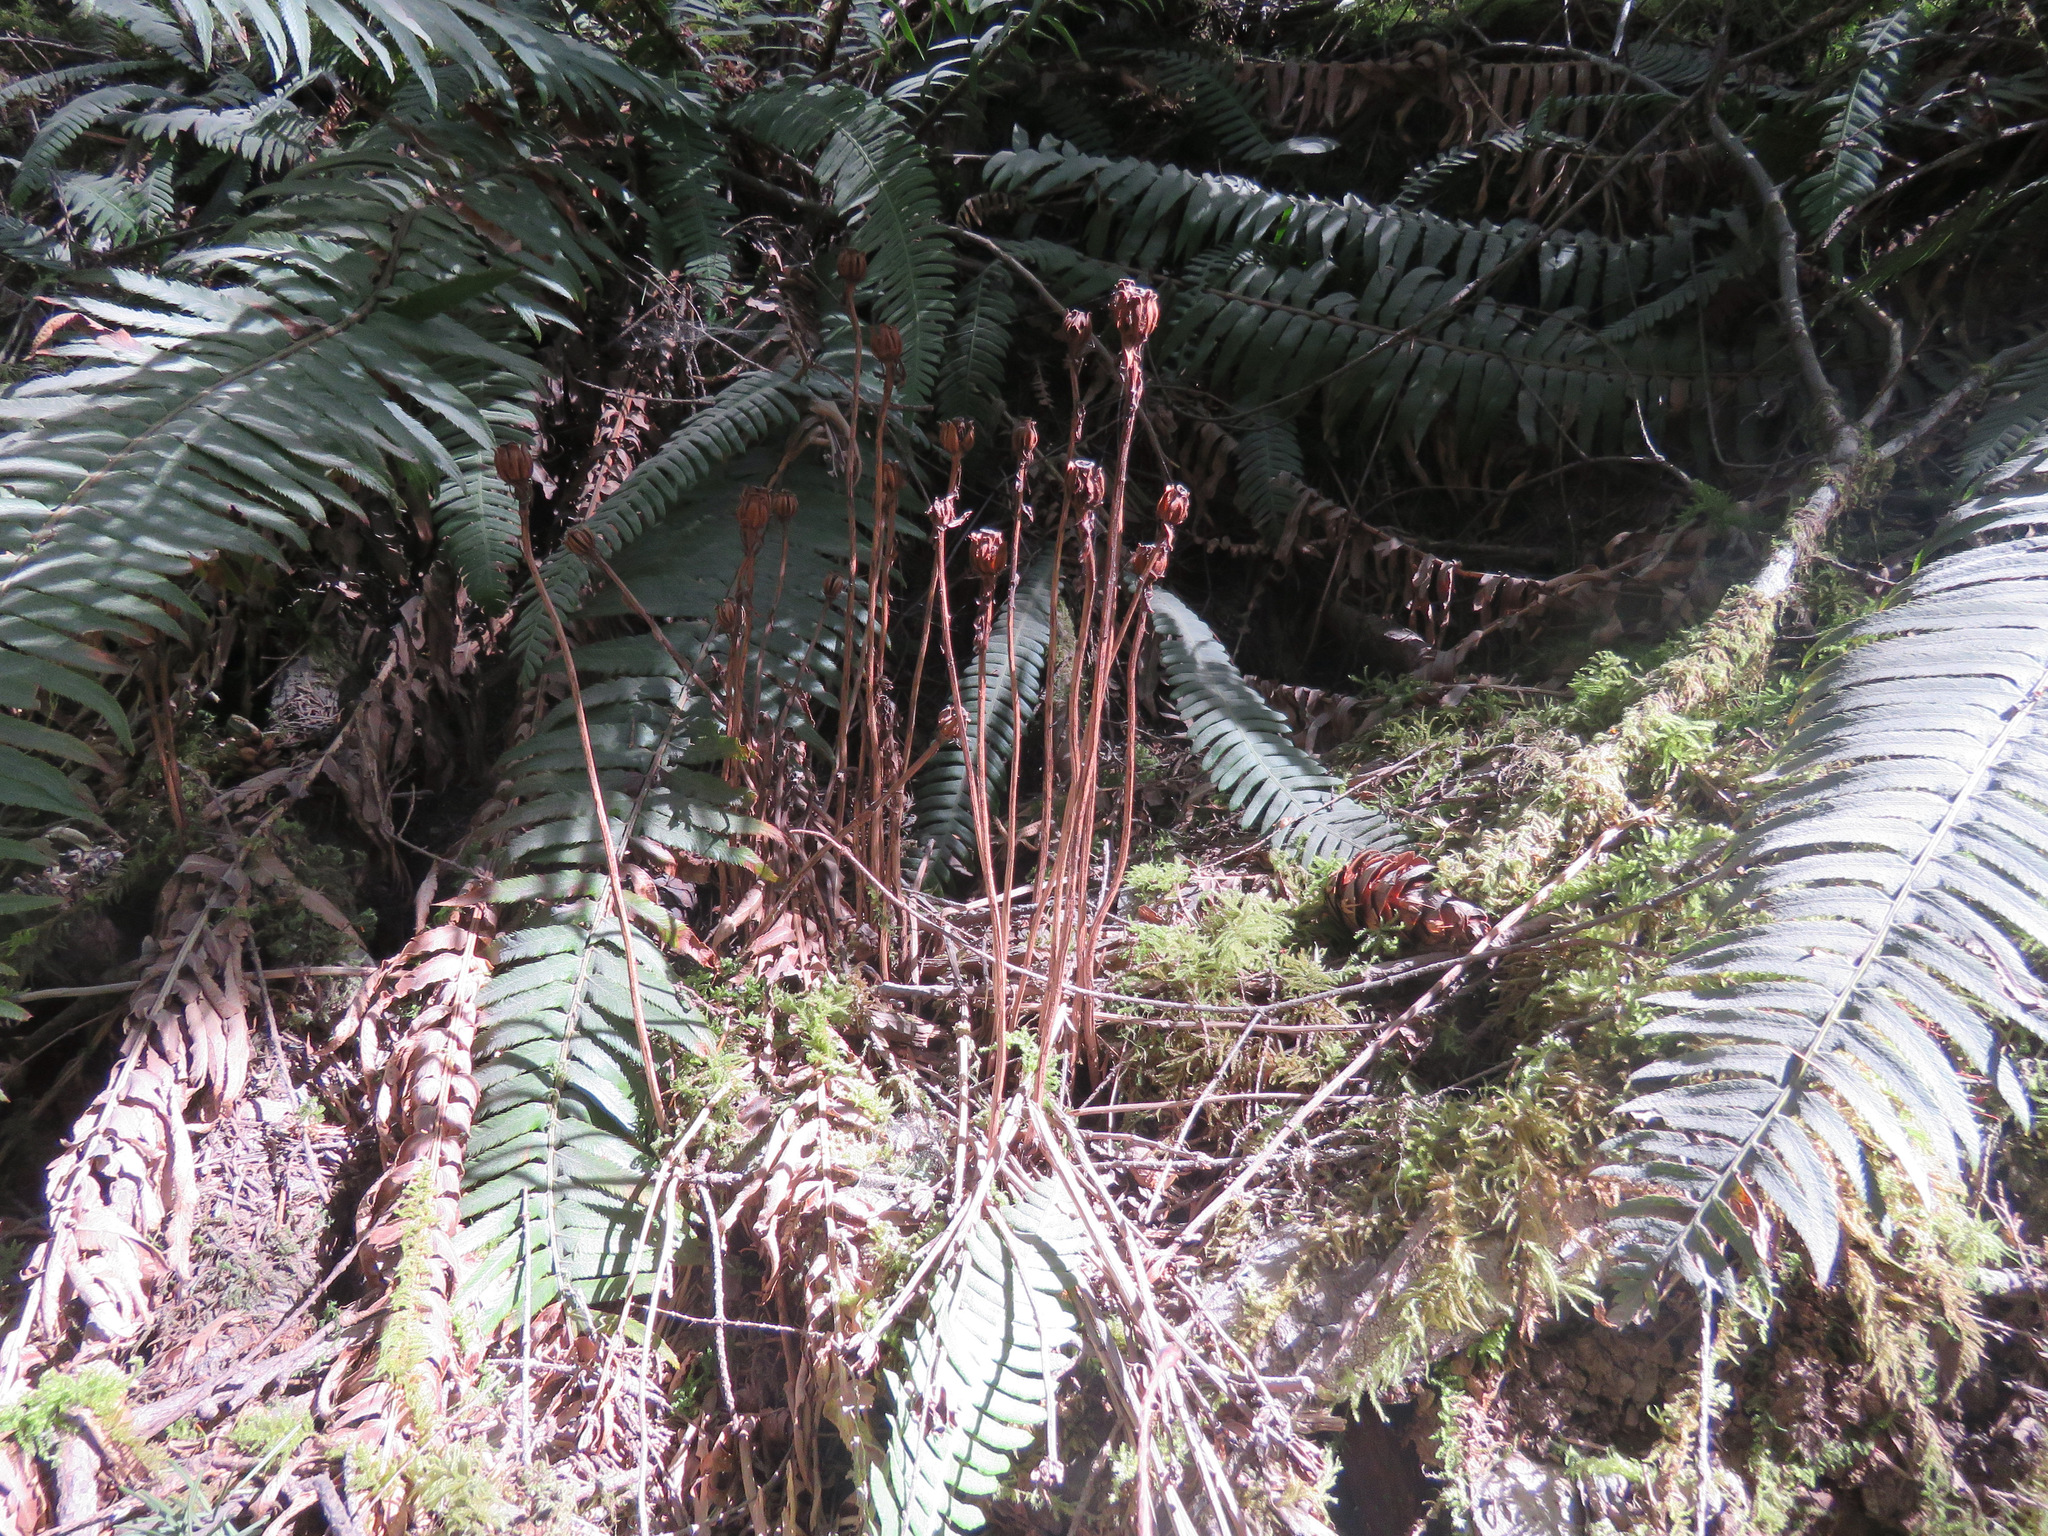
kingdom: Plantae
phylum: Tracheophyta
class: Magnoliopsida
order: Ericales
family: Ericaceae
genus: Monotropa
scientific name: Monotropa uniflora
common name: Convulsion root
